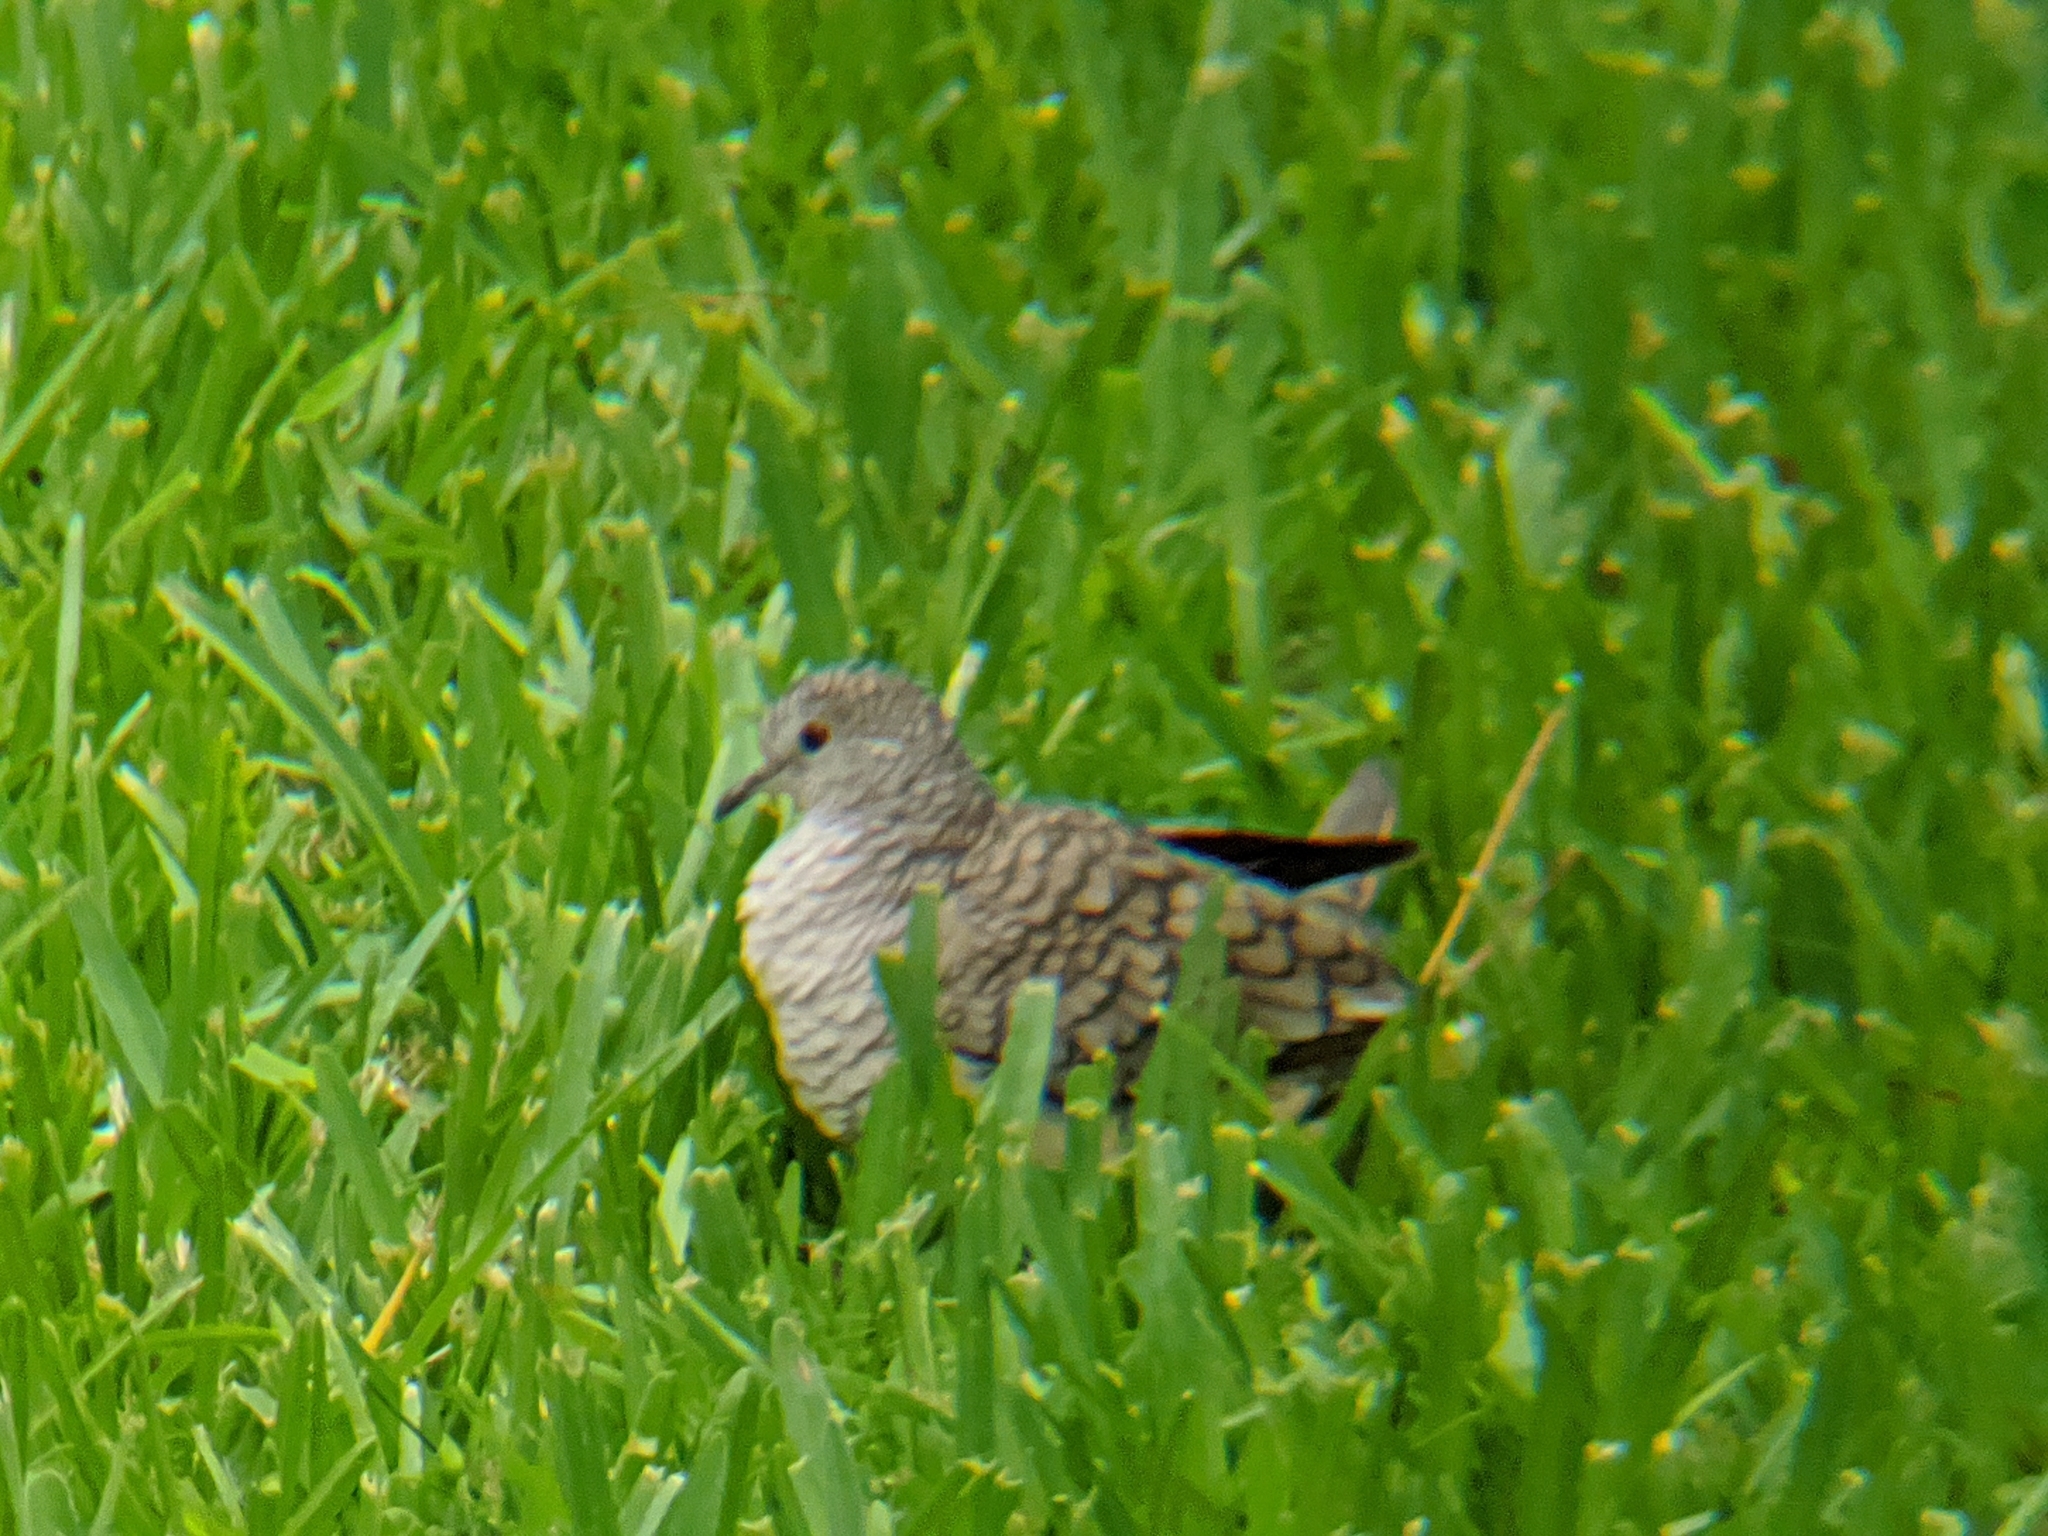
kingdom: Animalia
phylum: Chordata
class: Aves
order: Columbiformes
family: Columbidae
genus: Columbina
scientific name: Columbina inca
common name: Inca dove
